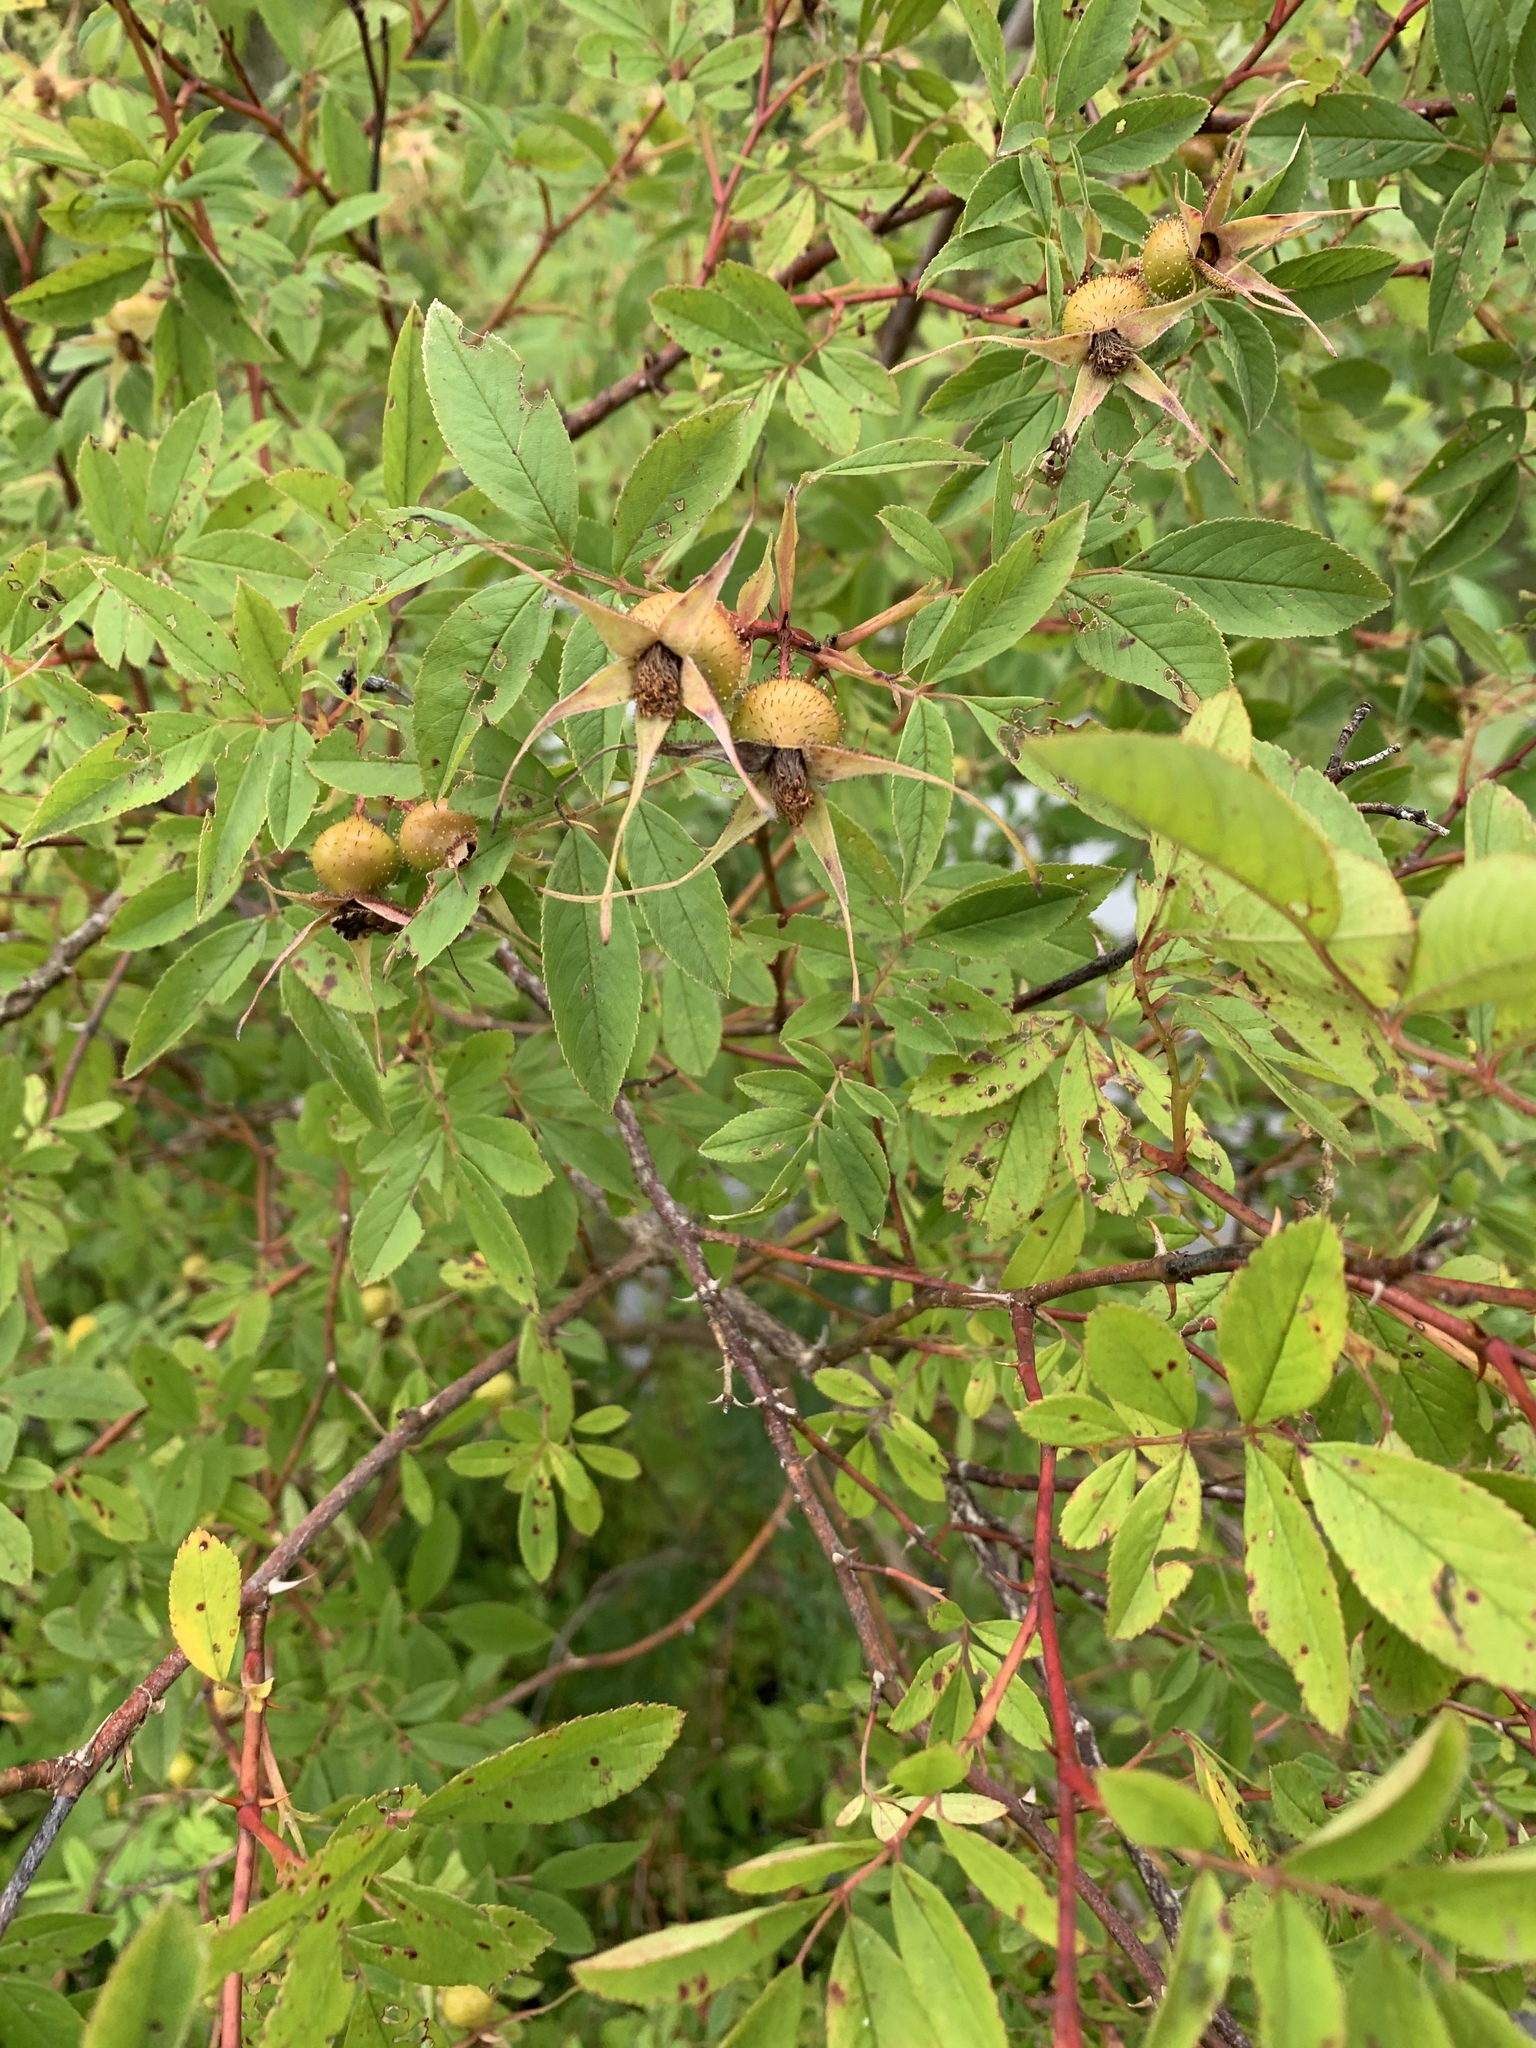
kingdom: Plantae
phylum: Tracheophyta
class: Magnoliopsida
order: Rosales
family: Rosaceae
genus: Rosa
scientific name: Rosa palustris
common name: Swamp rose
